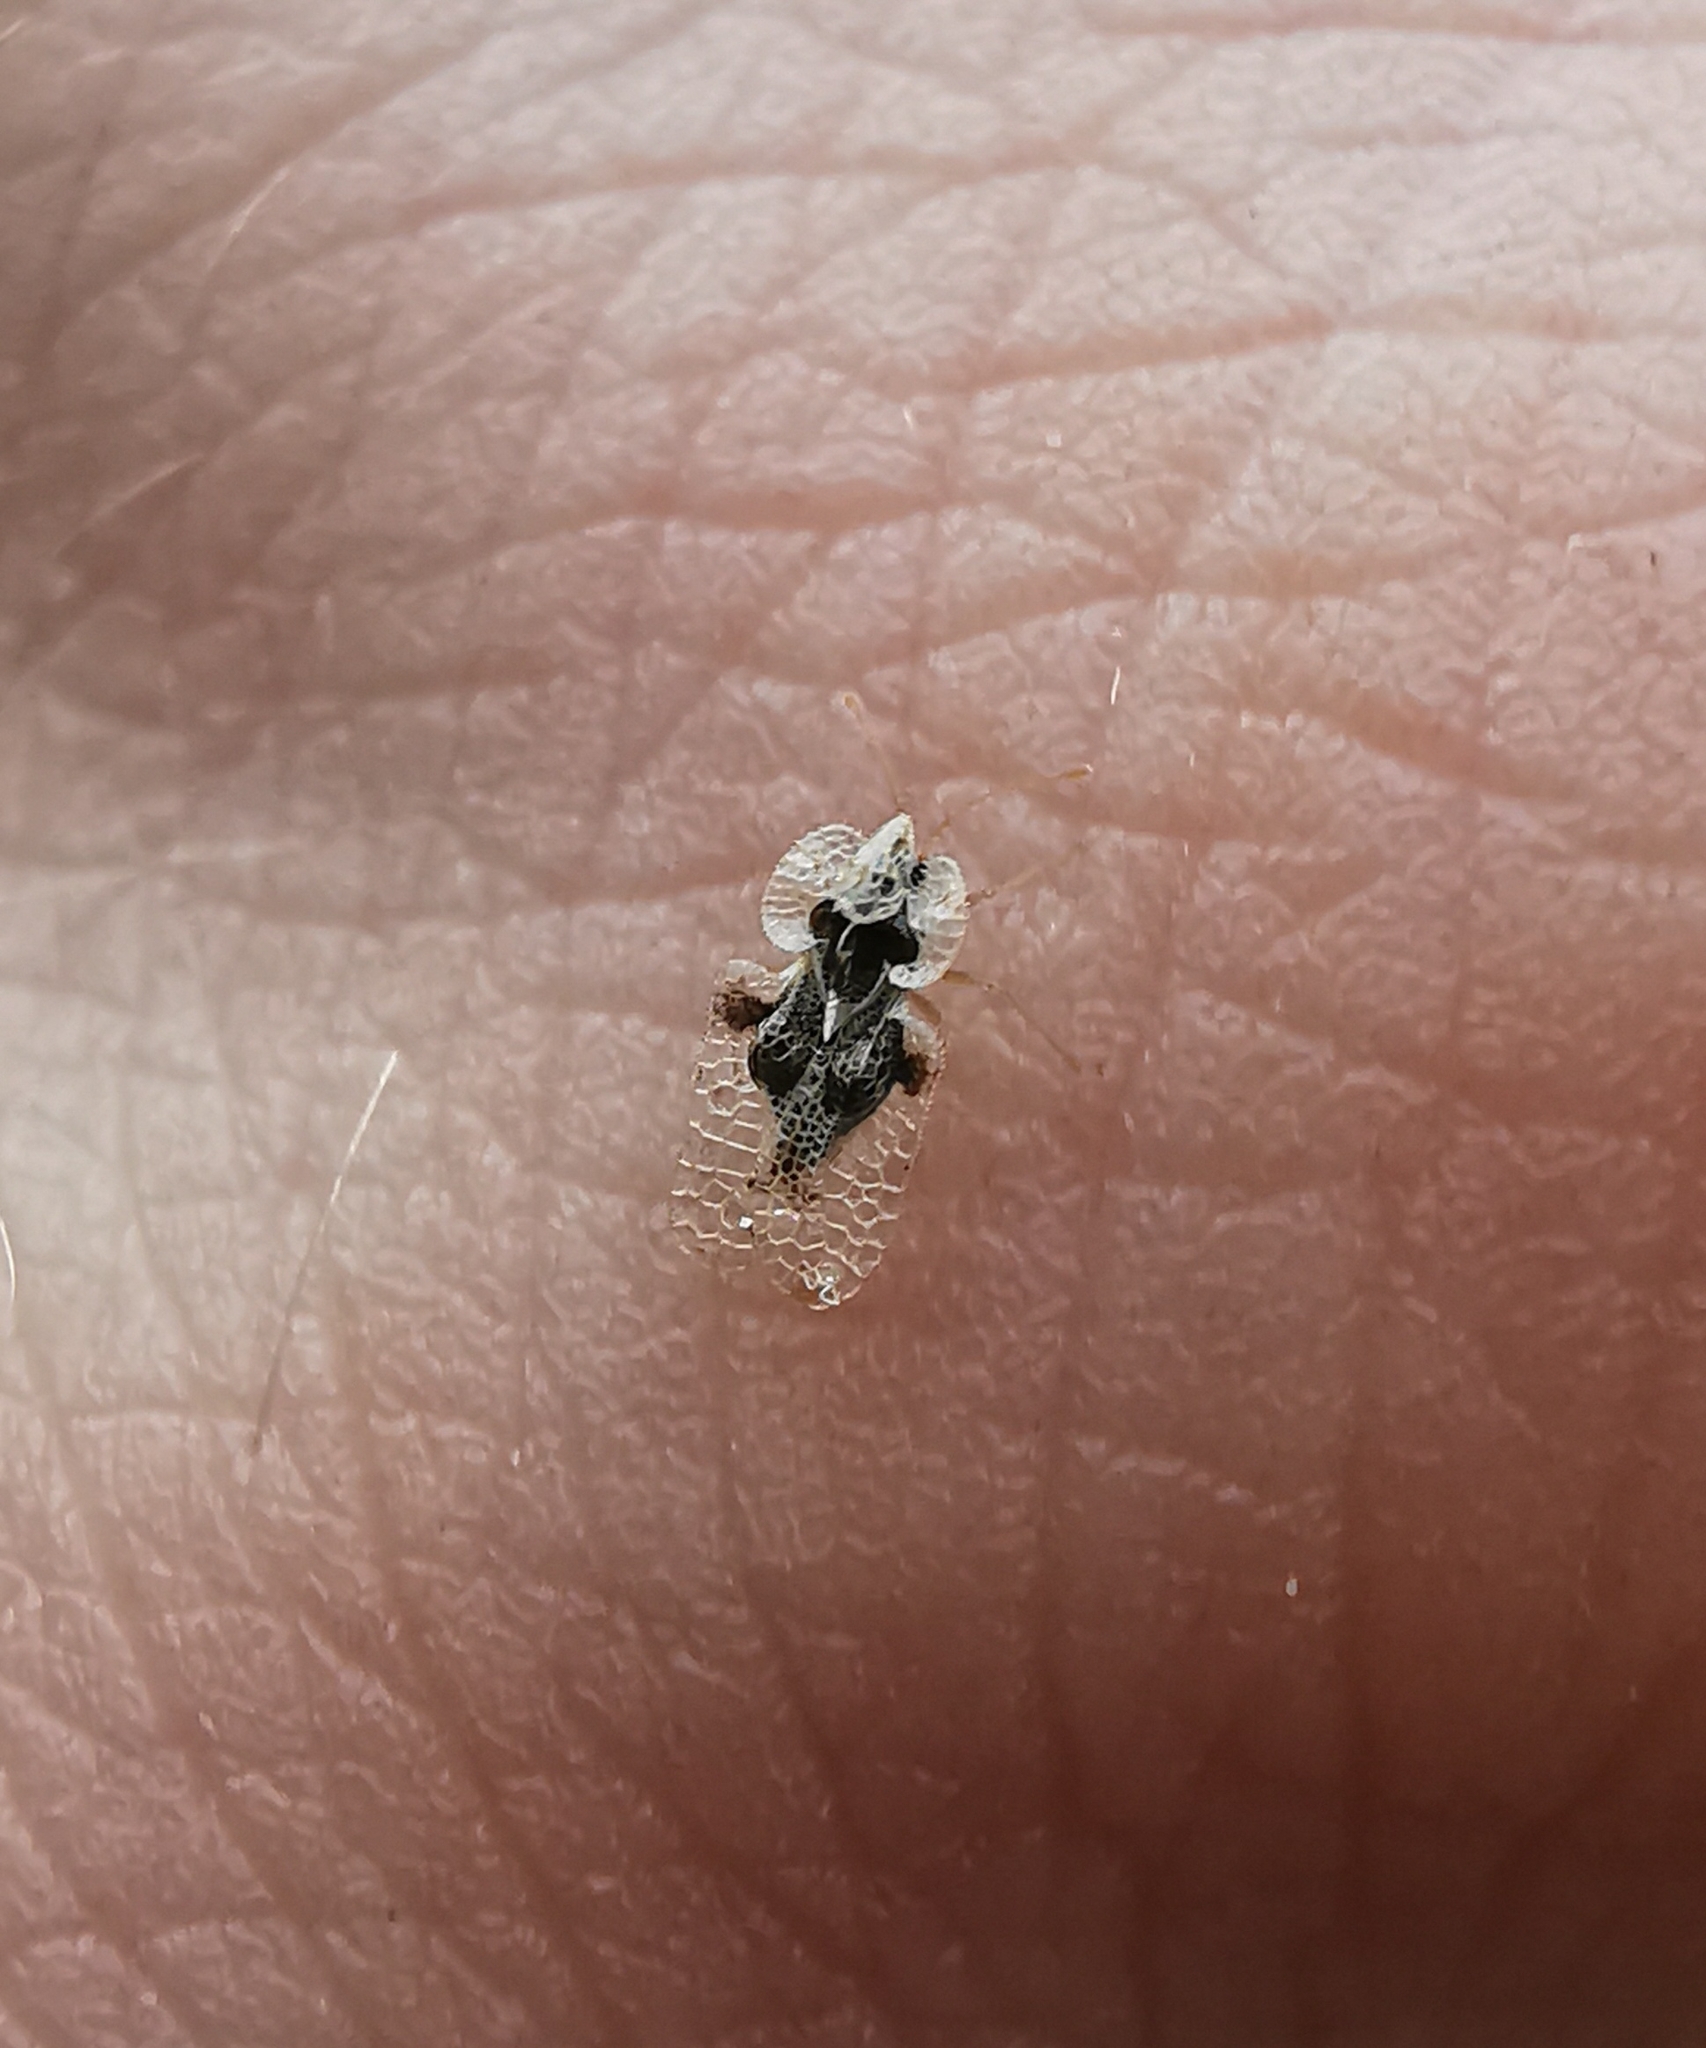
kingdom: Animalia
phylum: Arthropoda
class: Insecta
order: Hemiptera
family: Tingidae
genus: Corythucha
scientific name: Corythucha arcuata
